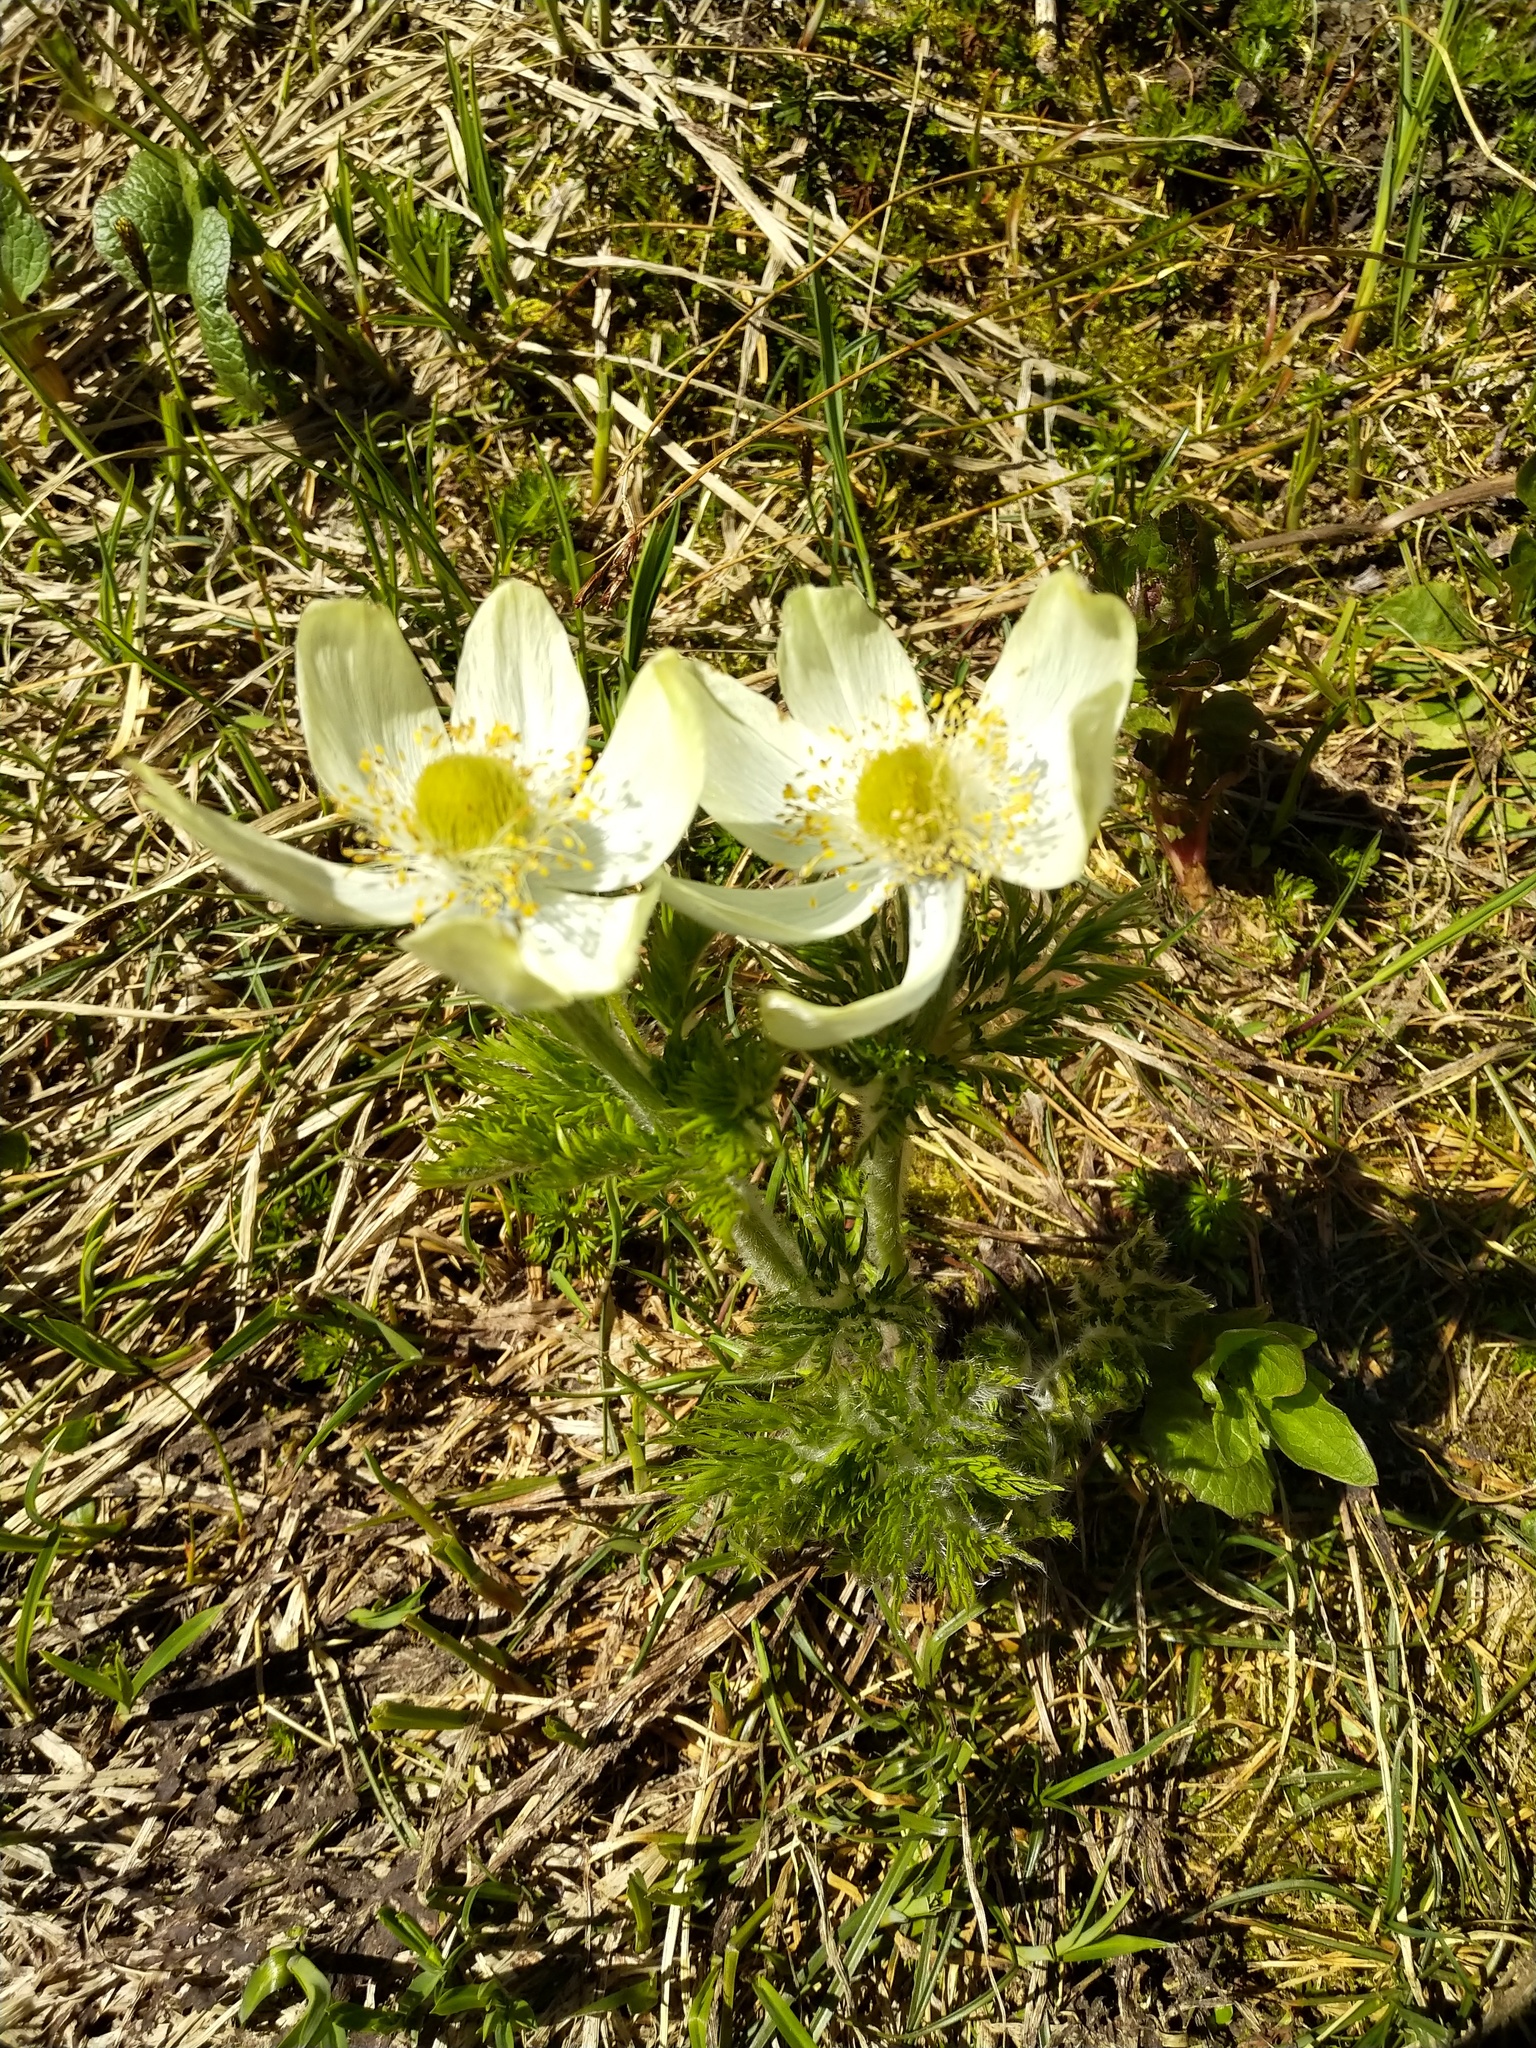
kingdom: Plantae
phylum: Tracheophyta
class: Magnoliopsida
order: Ranunculales
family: Ranunculaceae
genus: Pulsatilla
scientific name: Pulsatilla occidentalis
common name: Mountain pasqueflower
